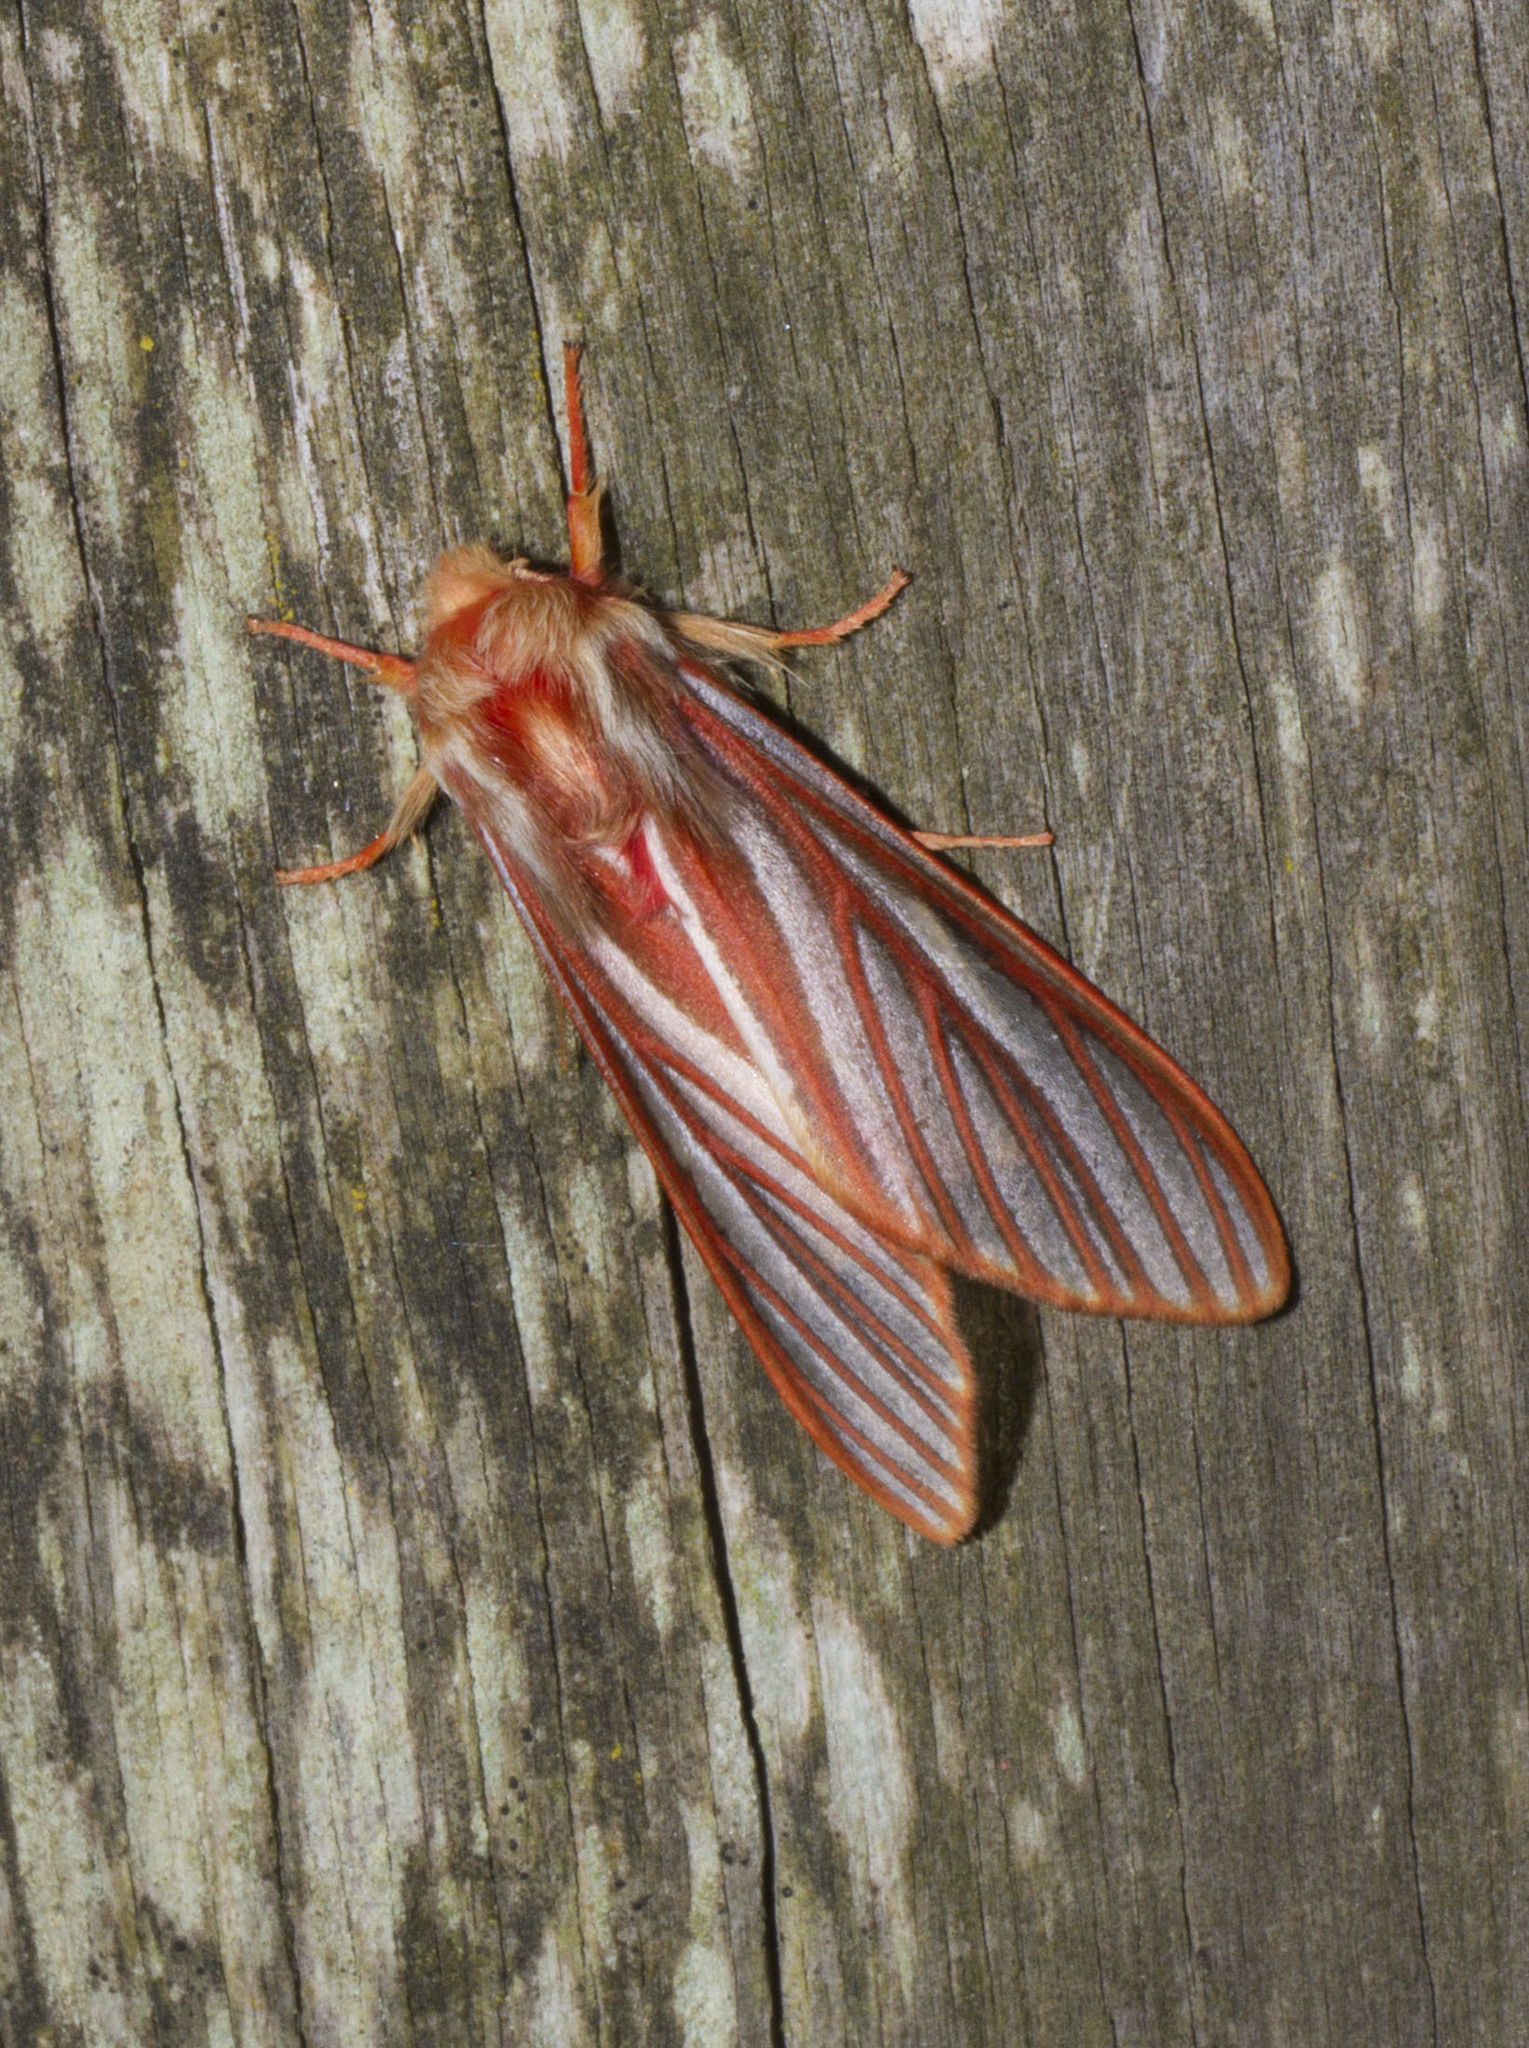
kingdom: Animalia
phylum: Arthropoda
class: Insecta
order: Lepidoptera
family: Arctiidae
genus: Pseudohemihyalea
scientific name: Pseudohemihyalea syracosia
